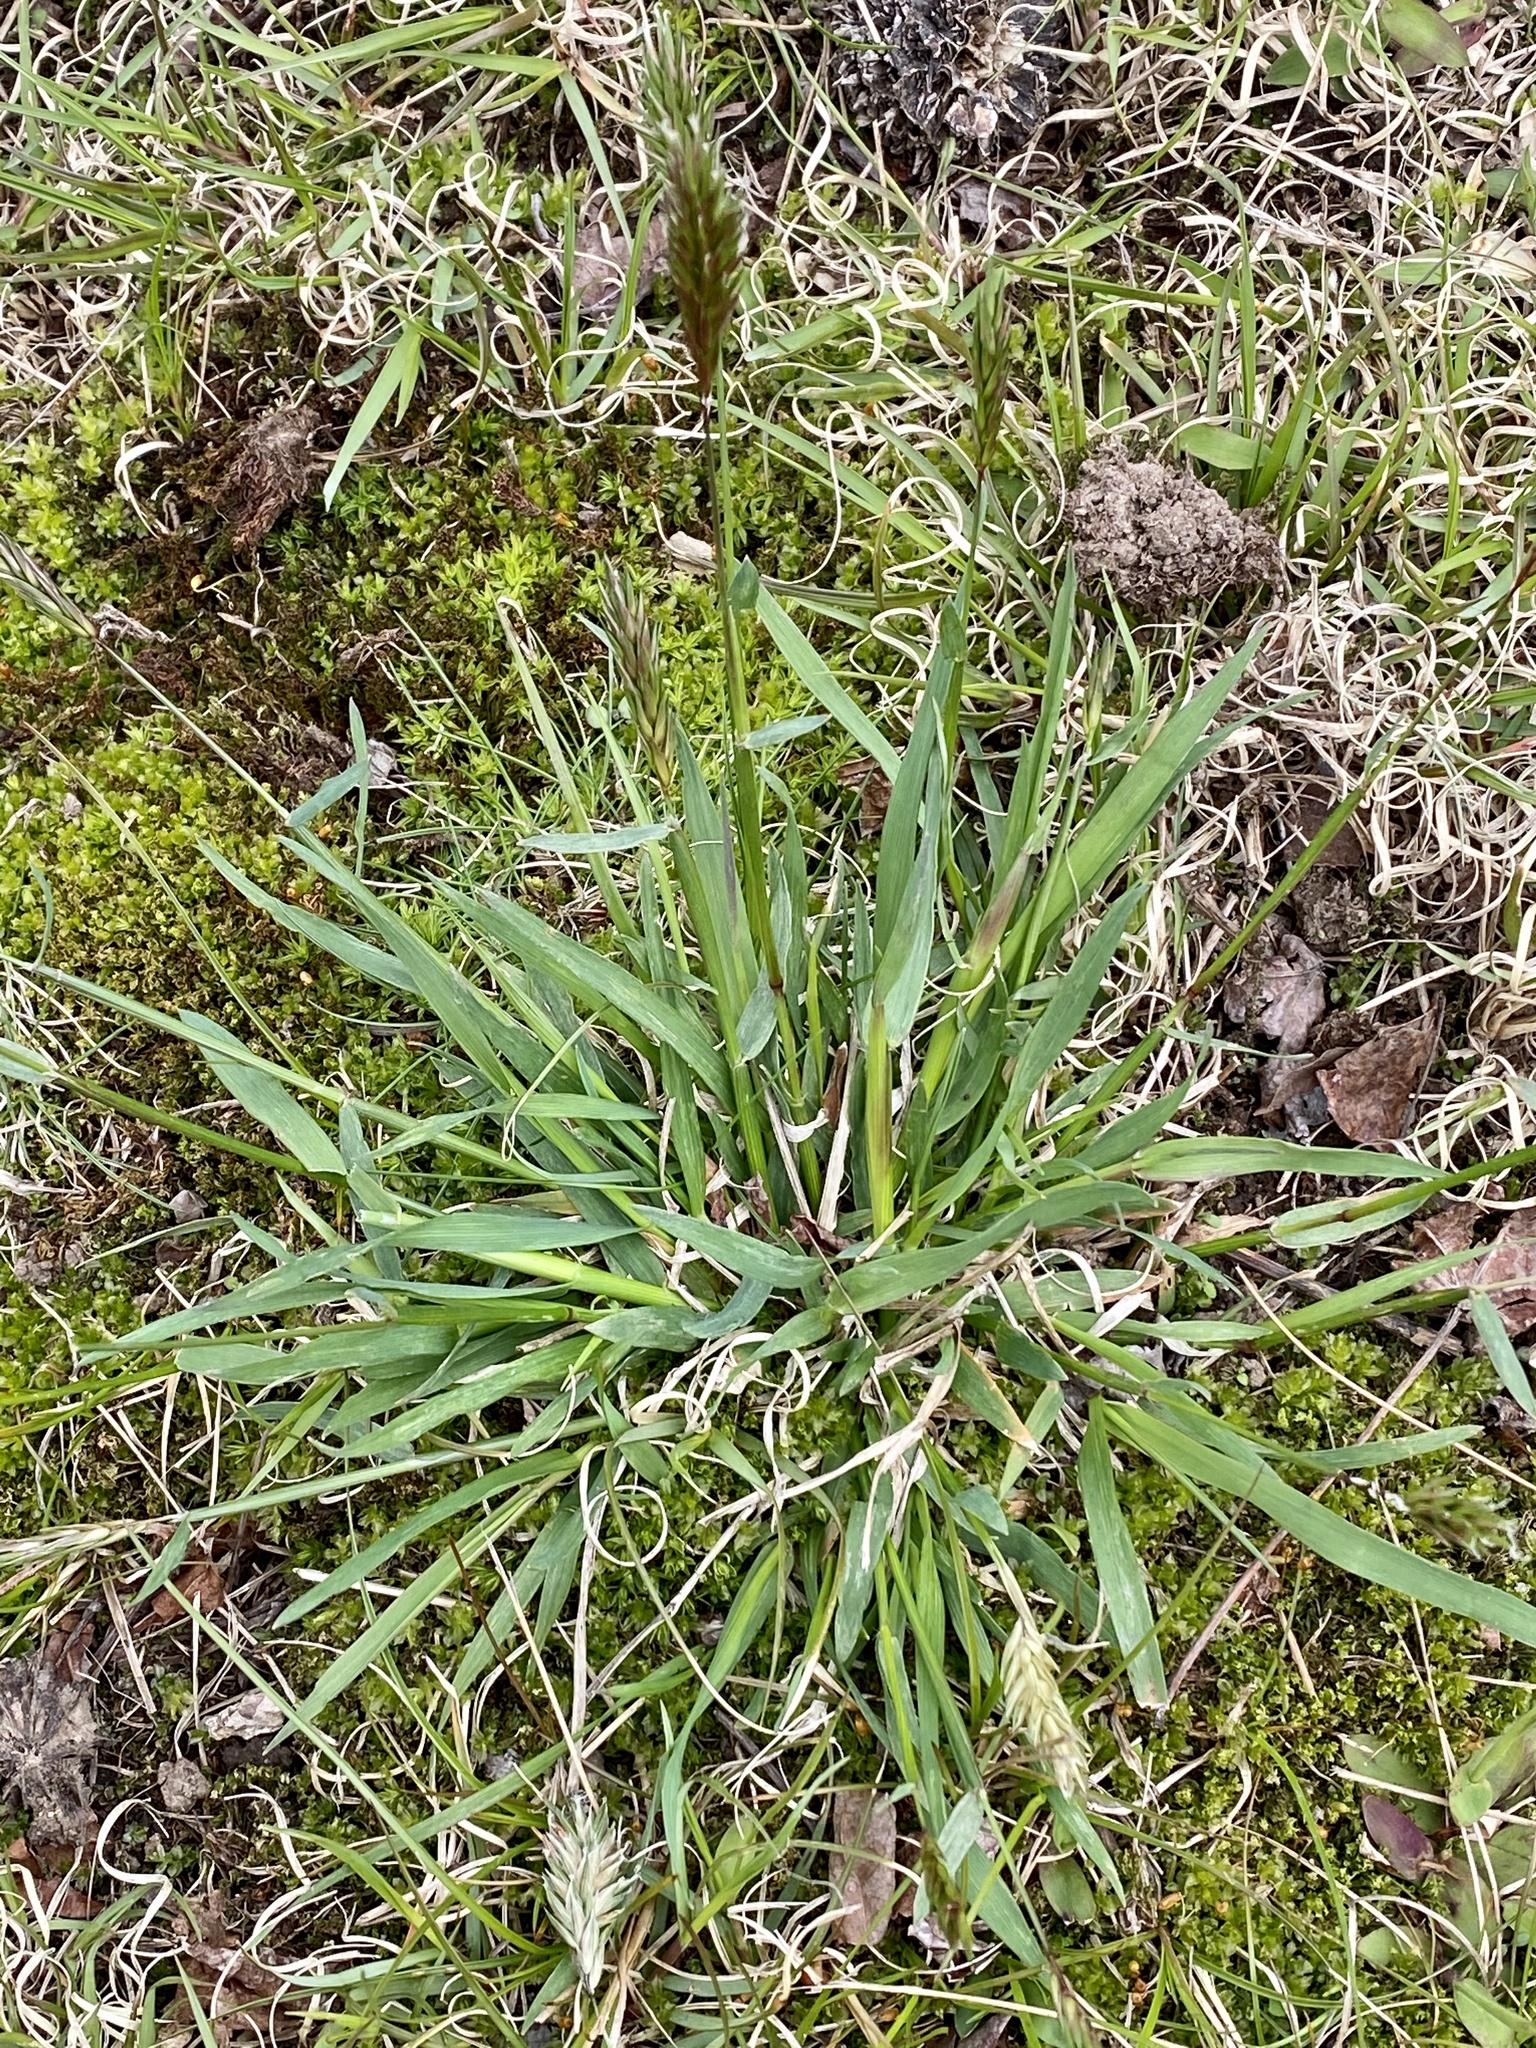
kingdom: Plantae
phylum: Tracheophyta
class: Liliopsida
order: Poales
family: Poaceae
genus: Anthoxanthum
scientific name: Anthoxanthum odoratum
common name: Sweet vernalgrass
